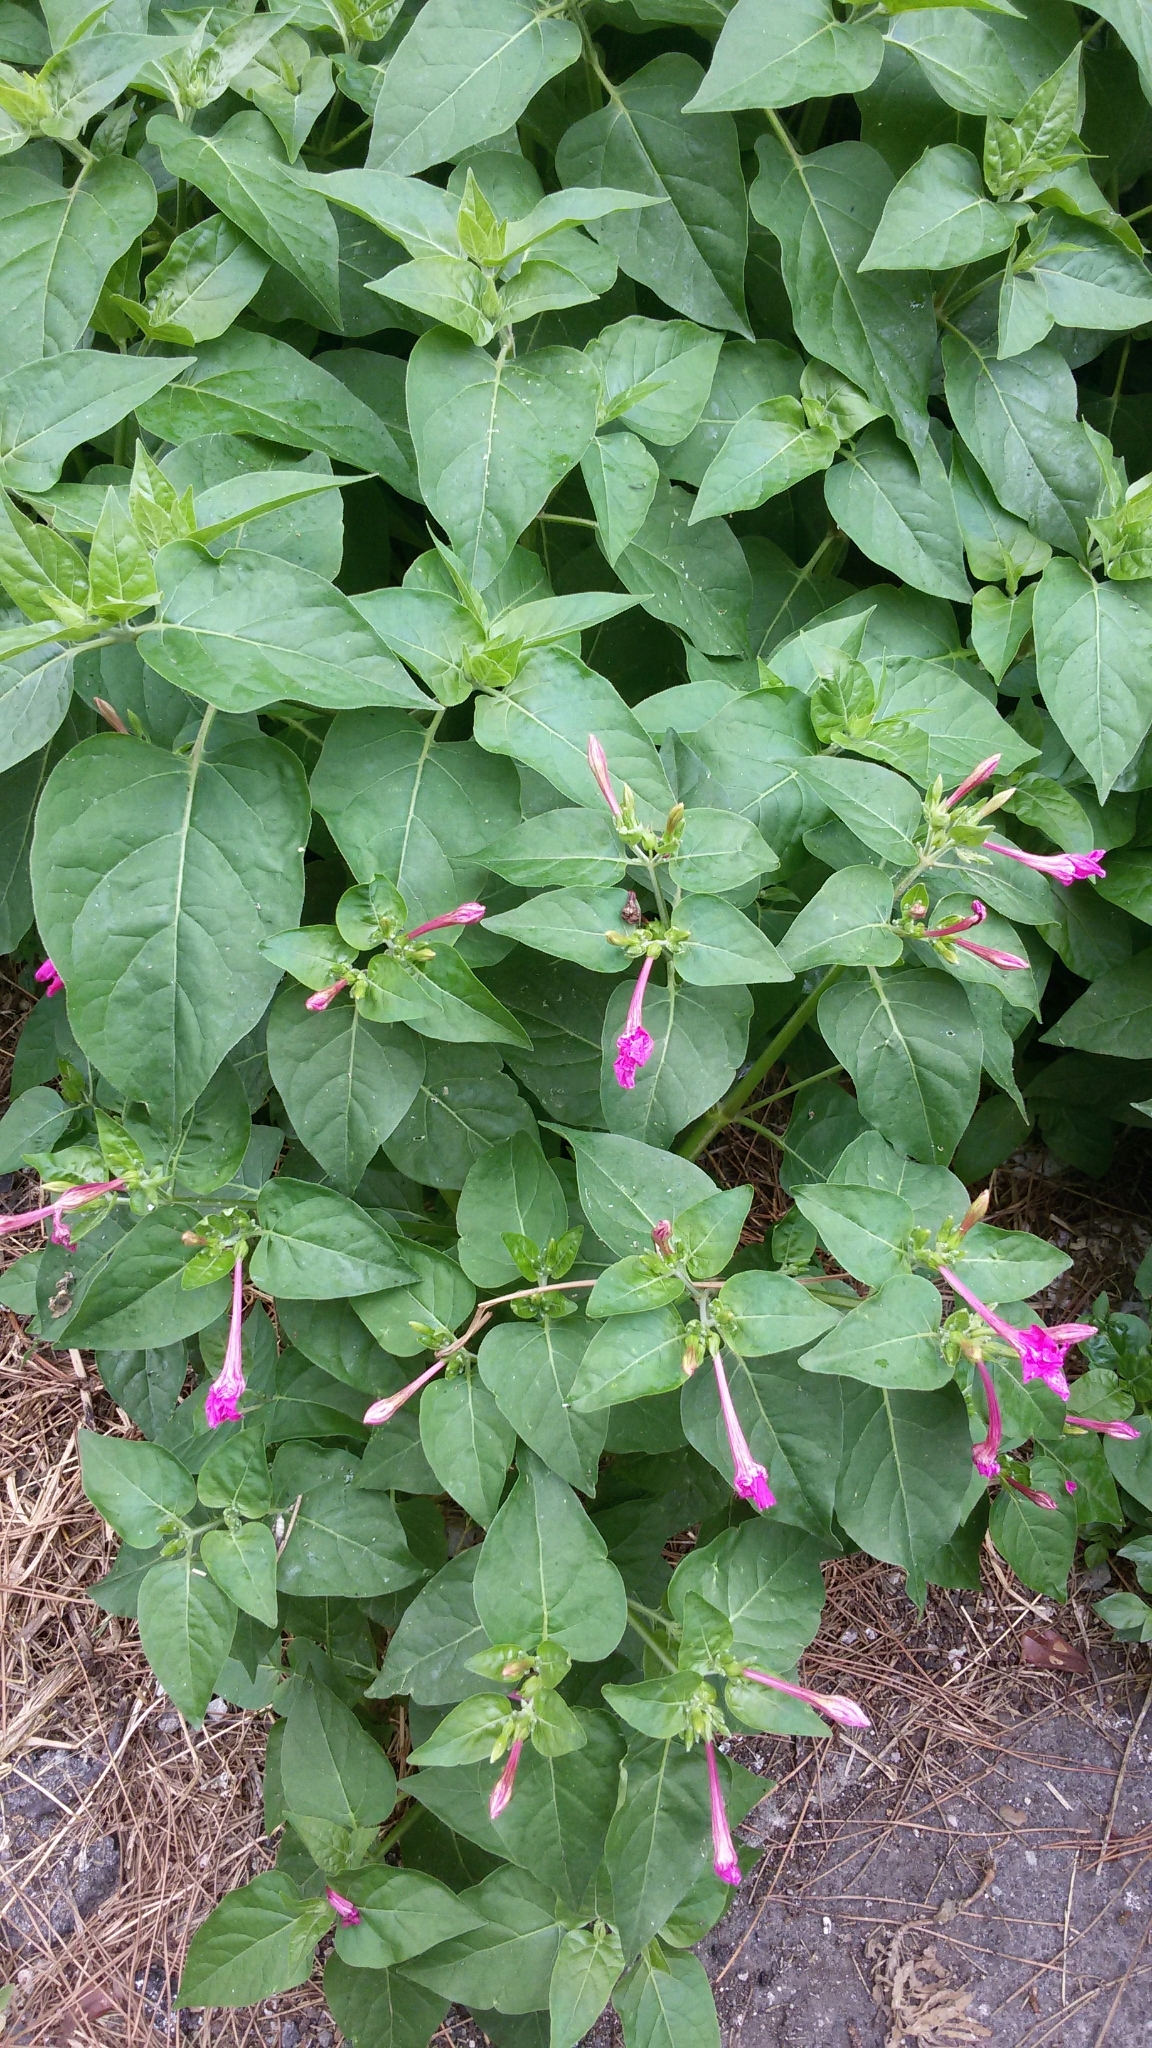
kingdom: Plantae
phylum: Tracheophyta
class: Magnoliopsida
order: Caryophyllales
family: Nyctaginaceae
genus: Mirabilis
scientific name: Mirabilis jalapa
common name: Marvel-of-peru
